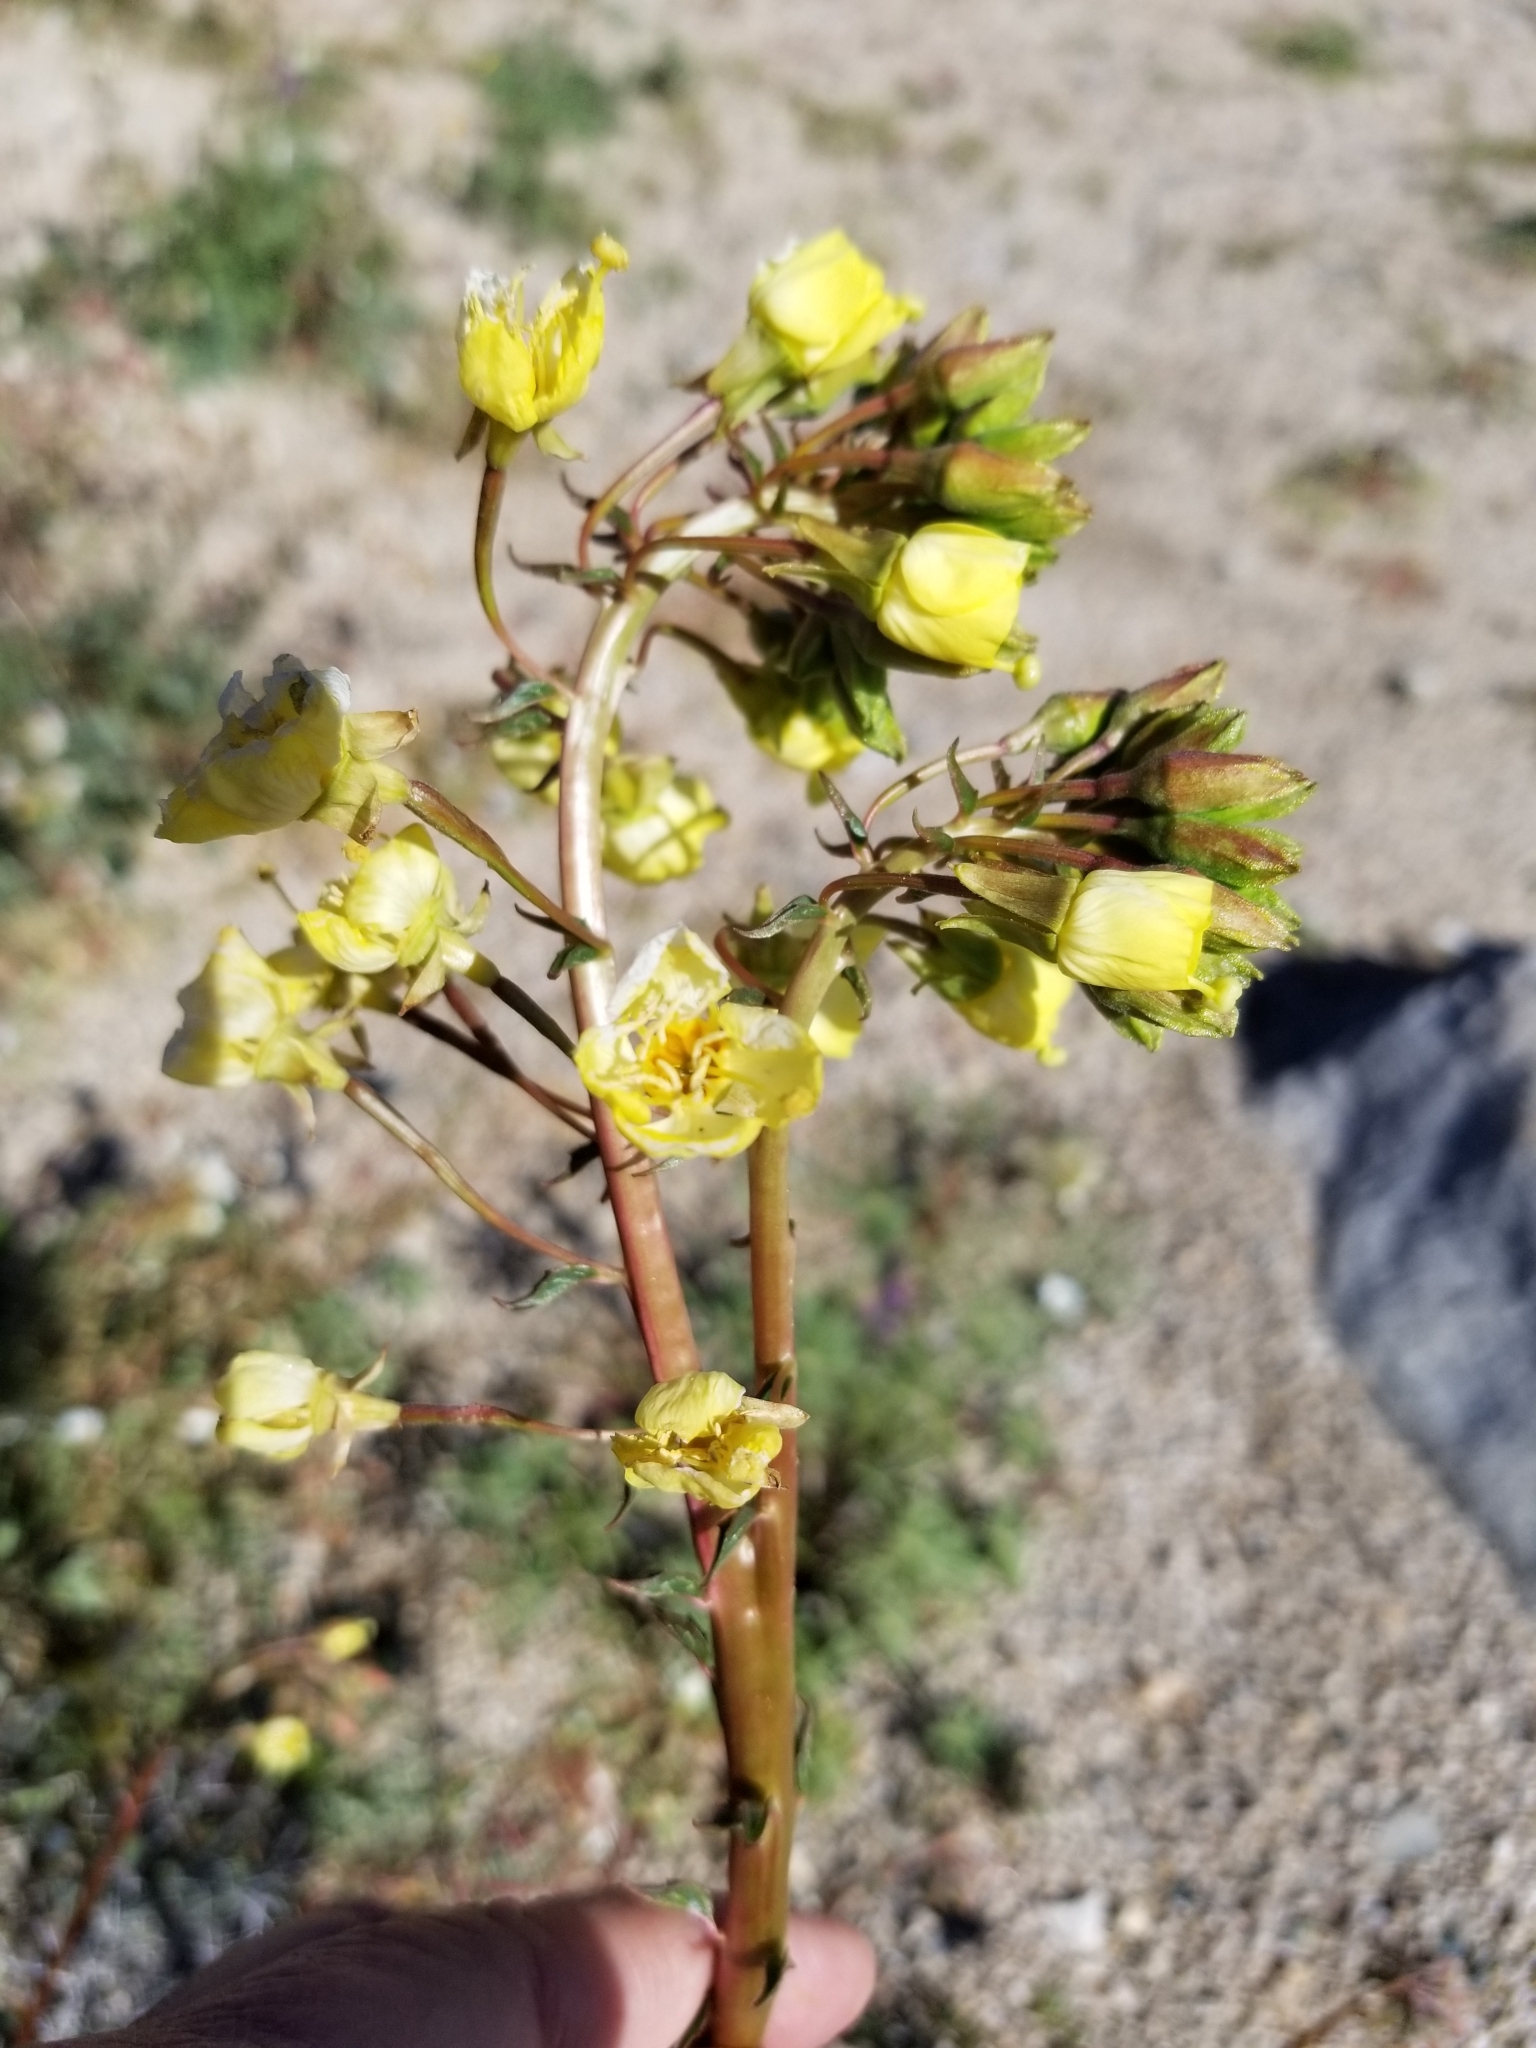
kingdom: Plantae
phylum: Tracheophyta
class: Magnoliopsida
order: Myrtales
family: Onagraceae
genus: Chylismia
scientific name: Chylismia claviformis
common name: Browneyes
